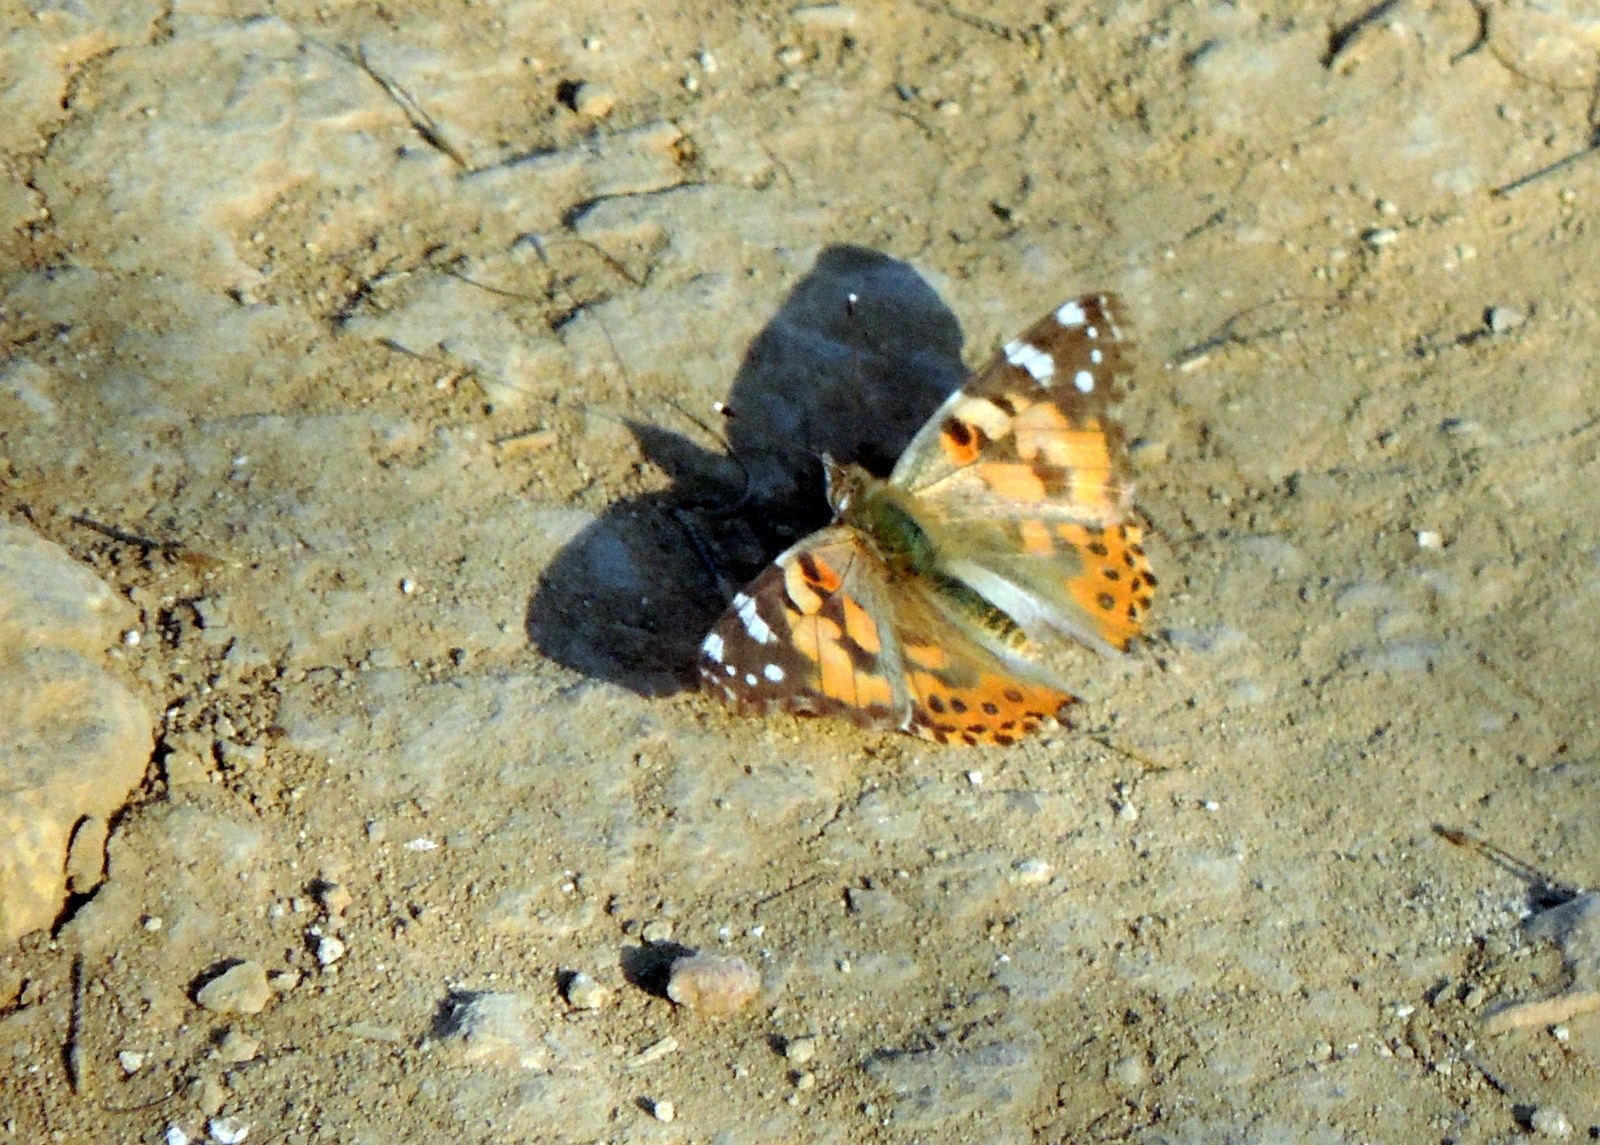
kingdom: Animalia
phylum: Arthropoda
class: Insecta
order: Lepidoptera
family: Nymphalidae
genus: Vanessa
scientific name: Vanessa cardui
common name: Painted lady
